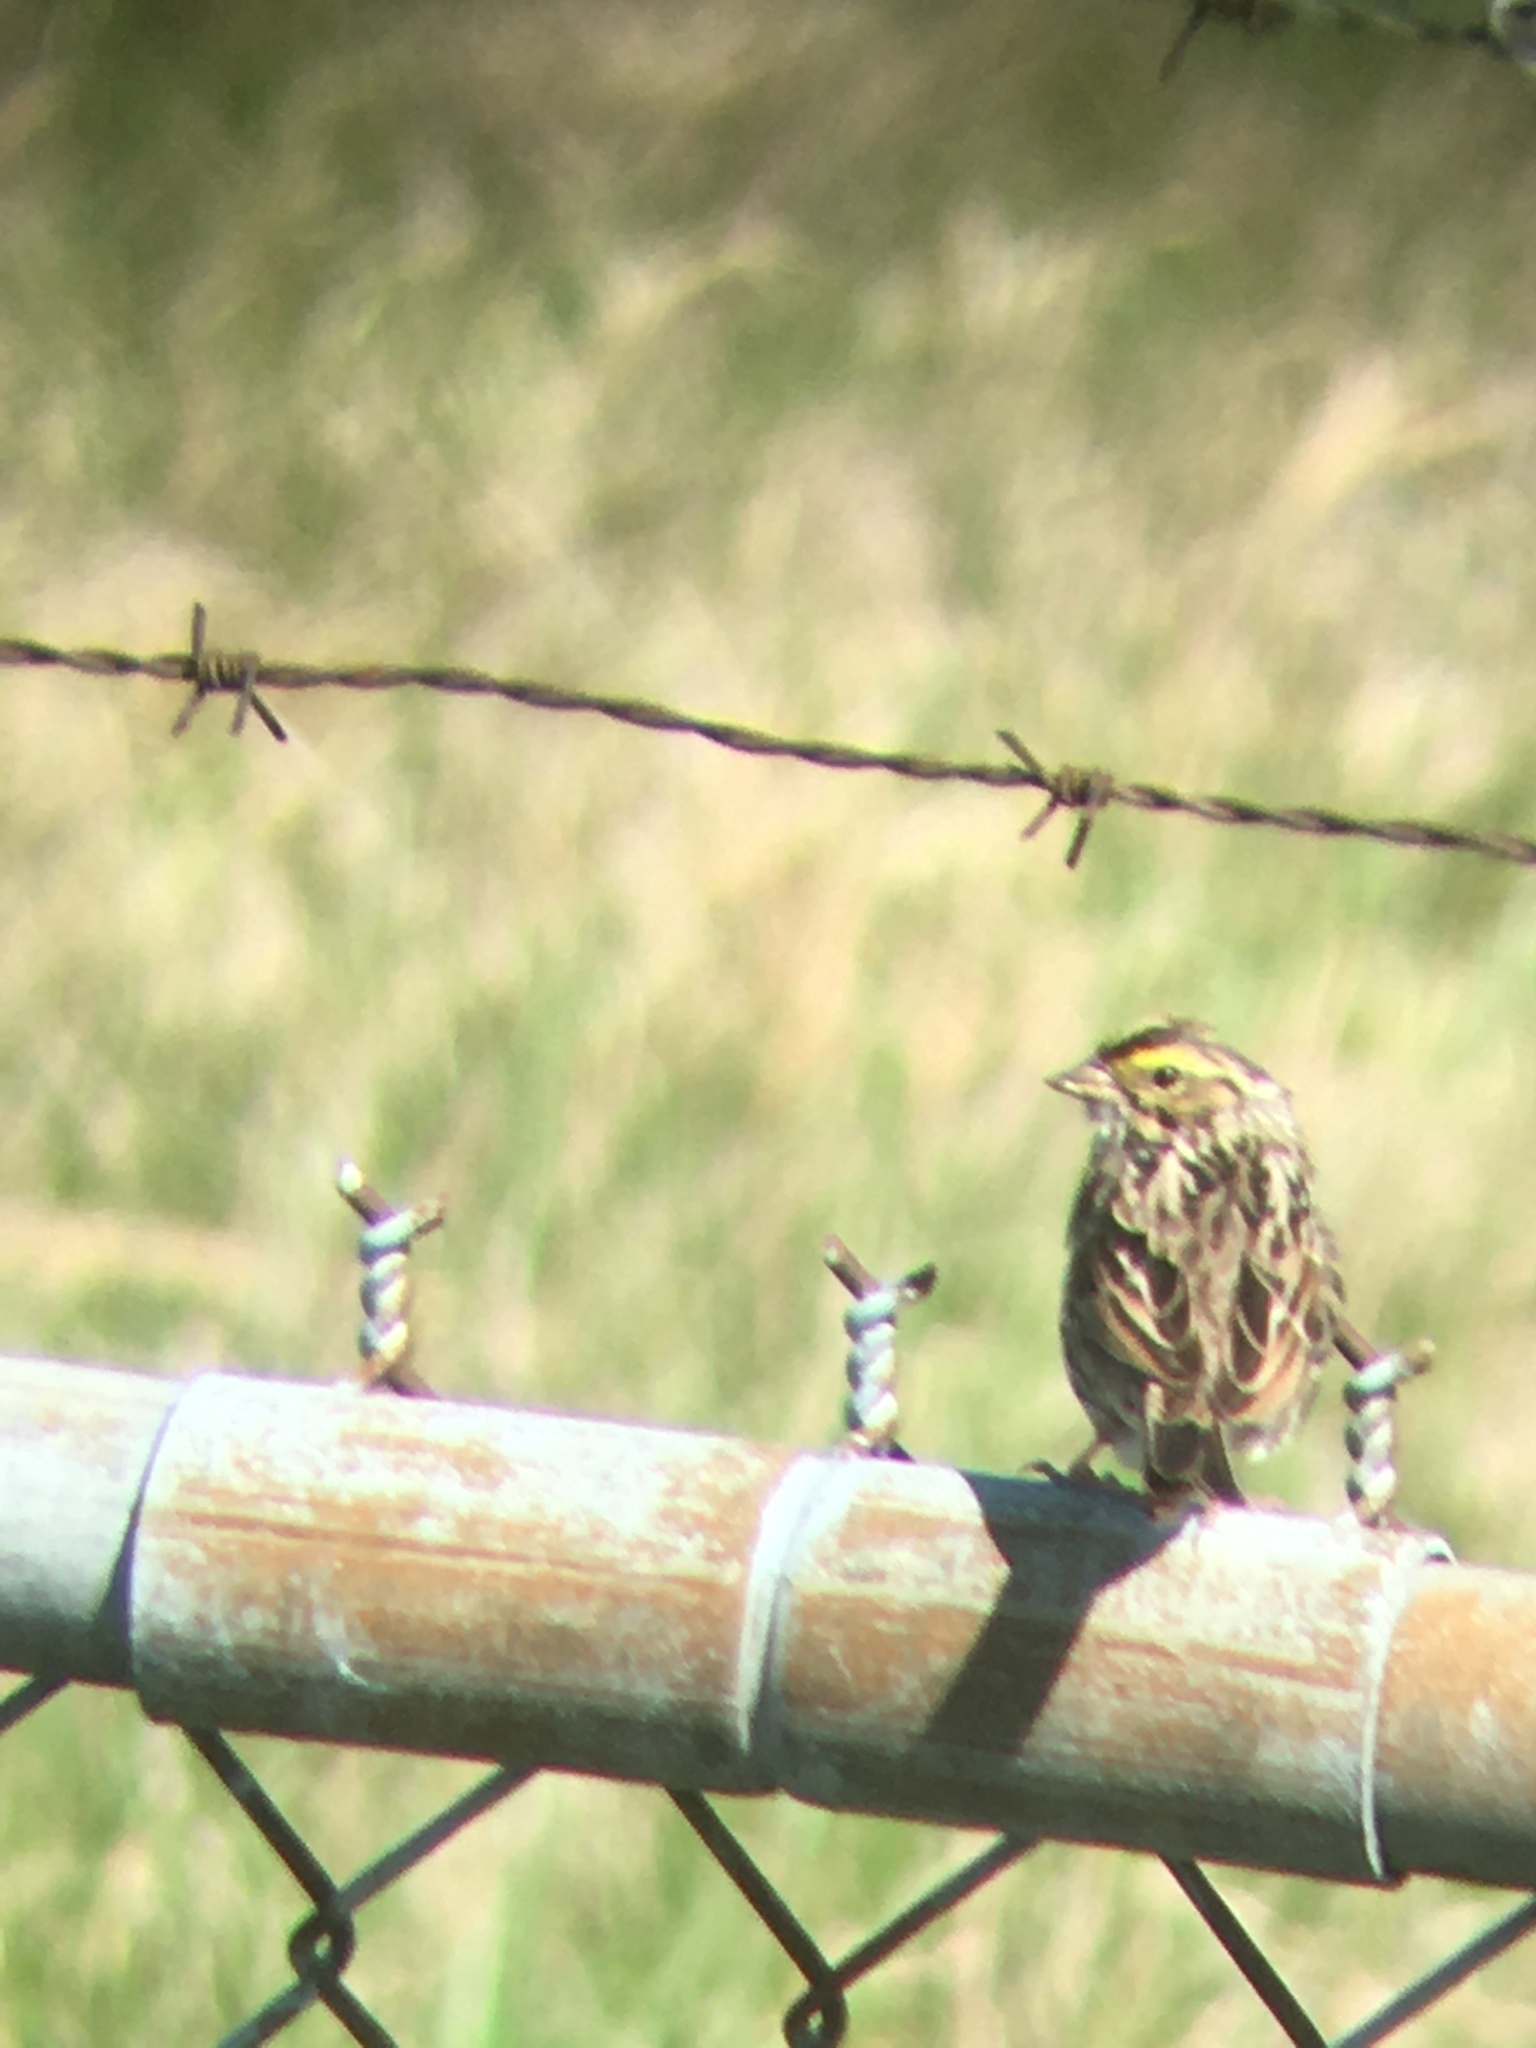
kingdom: Animalia
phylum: Chordata
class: Aves
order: Passeriformes
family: Passerellidae
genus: Passerculus
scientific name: Passerculus sandwichensis
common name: Savannah sparrow
